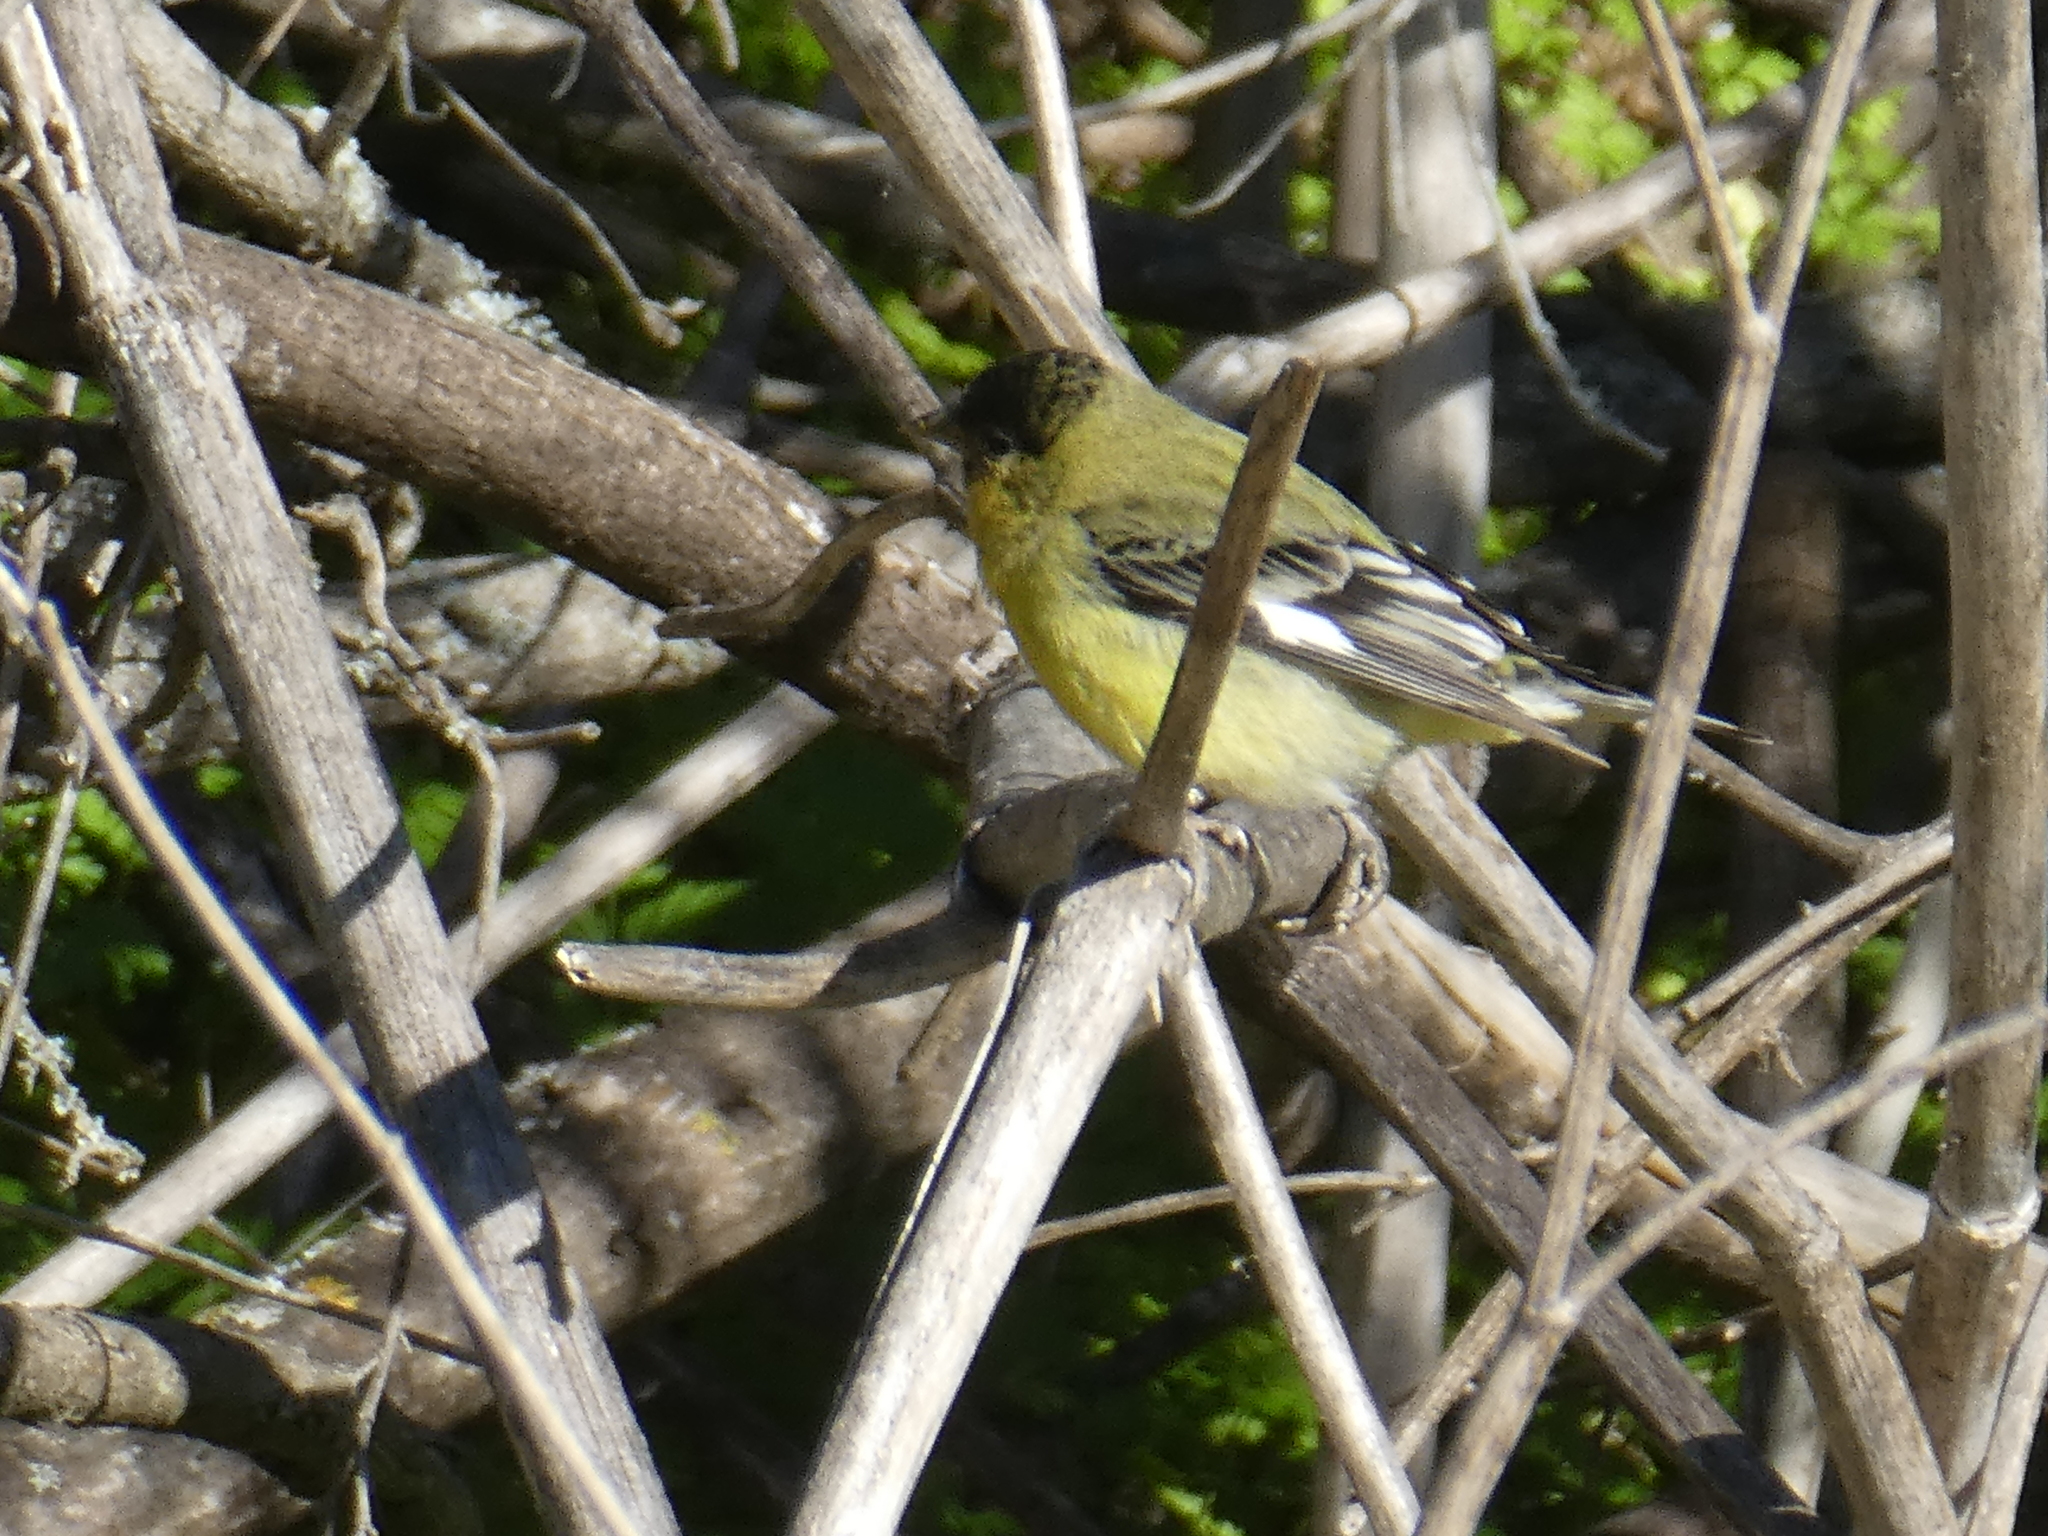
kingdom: Animalia
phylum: Chordata
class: Aves
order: Passeriformes
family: Fringillidae
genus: Spinus
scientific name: Spinus psaltria
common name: Lesser goldfinch
